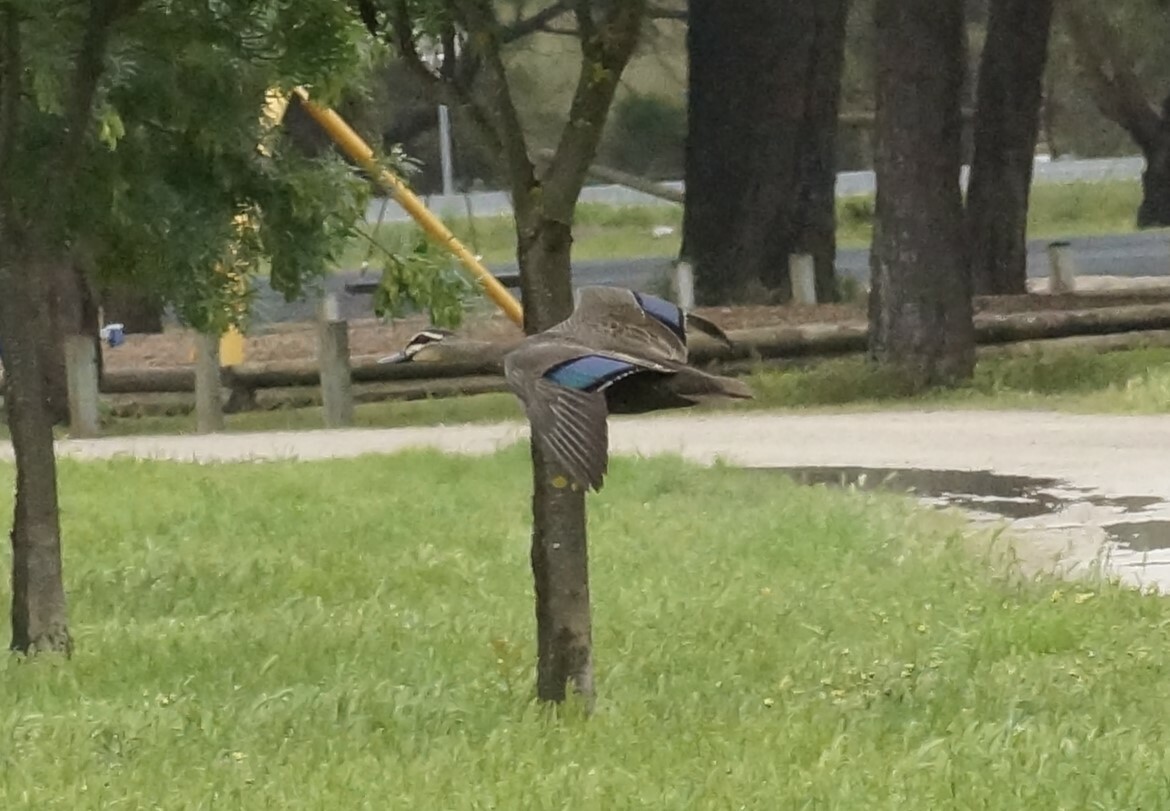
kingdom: Animalia
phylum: Chordata
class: Aves
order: Anseriformes
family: Anatidae
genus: Anas
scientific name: Anas superciliosa
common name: Pacific black duck
